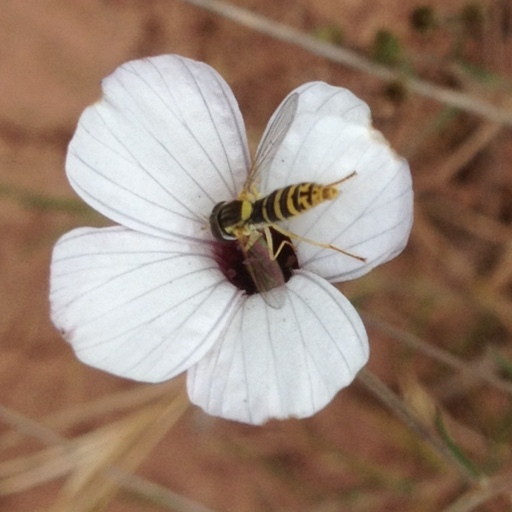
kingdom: Animalia
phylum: Arthropoda
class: Insecta
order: Diptera
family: Syrphidae
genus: Sphaerophoria
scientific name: Sphaerophoria
